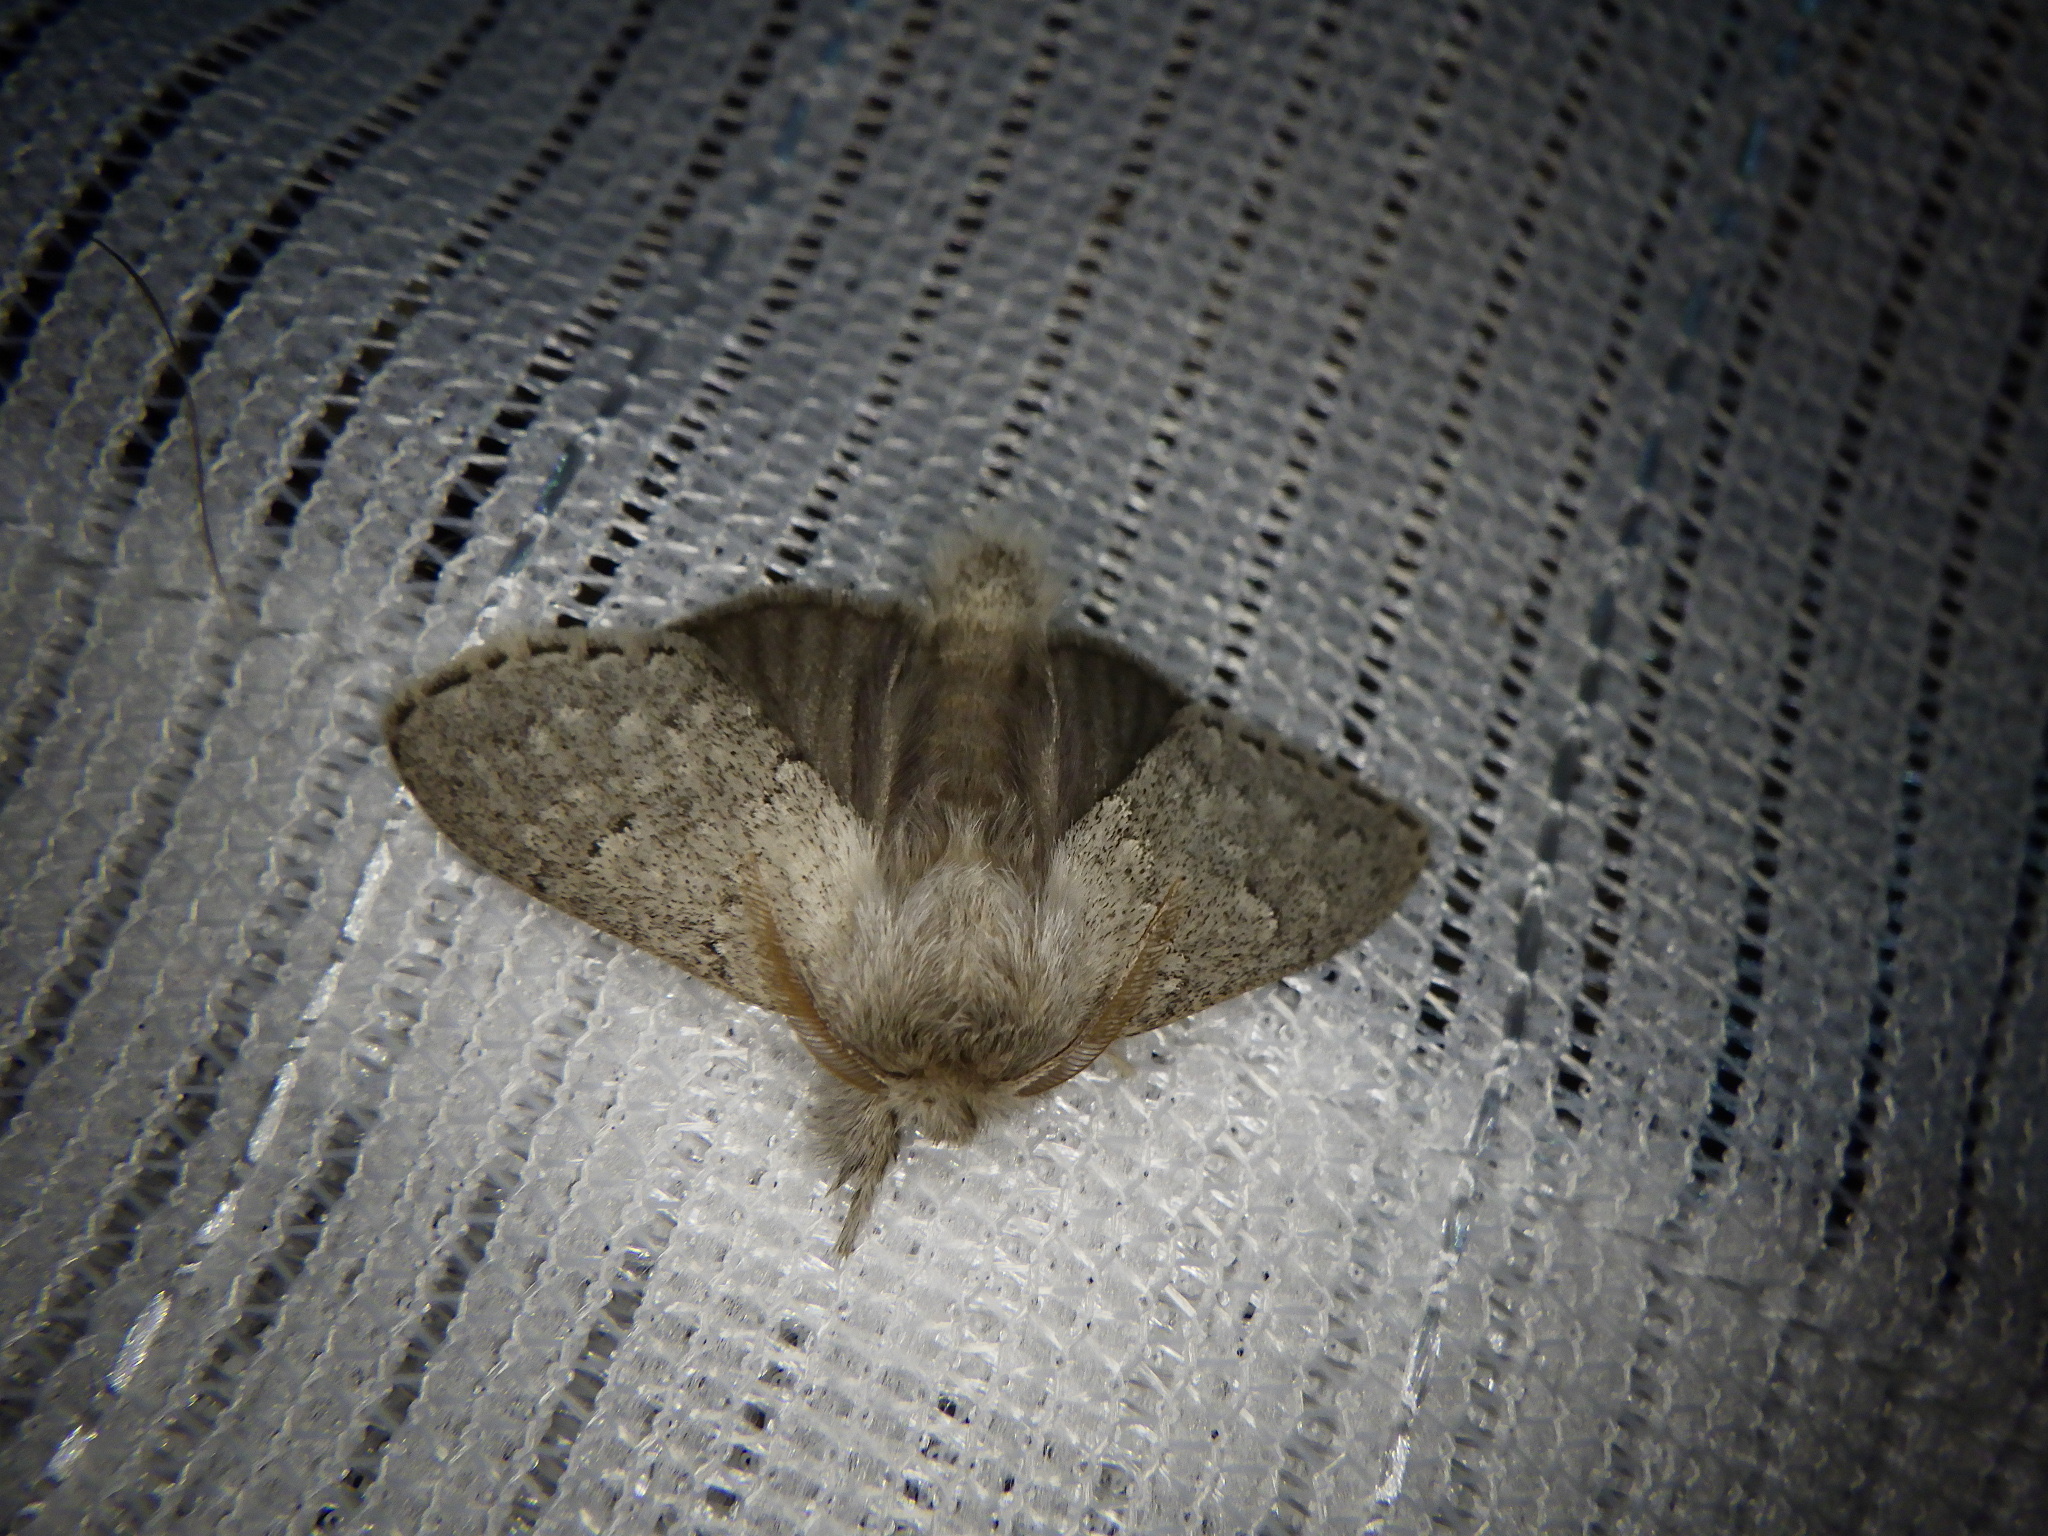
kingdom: Animalia
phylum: Arthropoda
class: Insecta
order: Lepidoptera
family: Notodontidae
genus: Cnethodonta
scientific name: Cnethodonta grisescens
